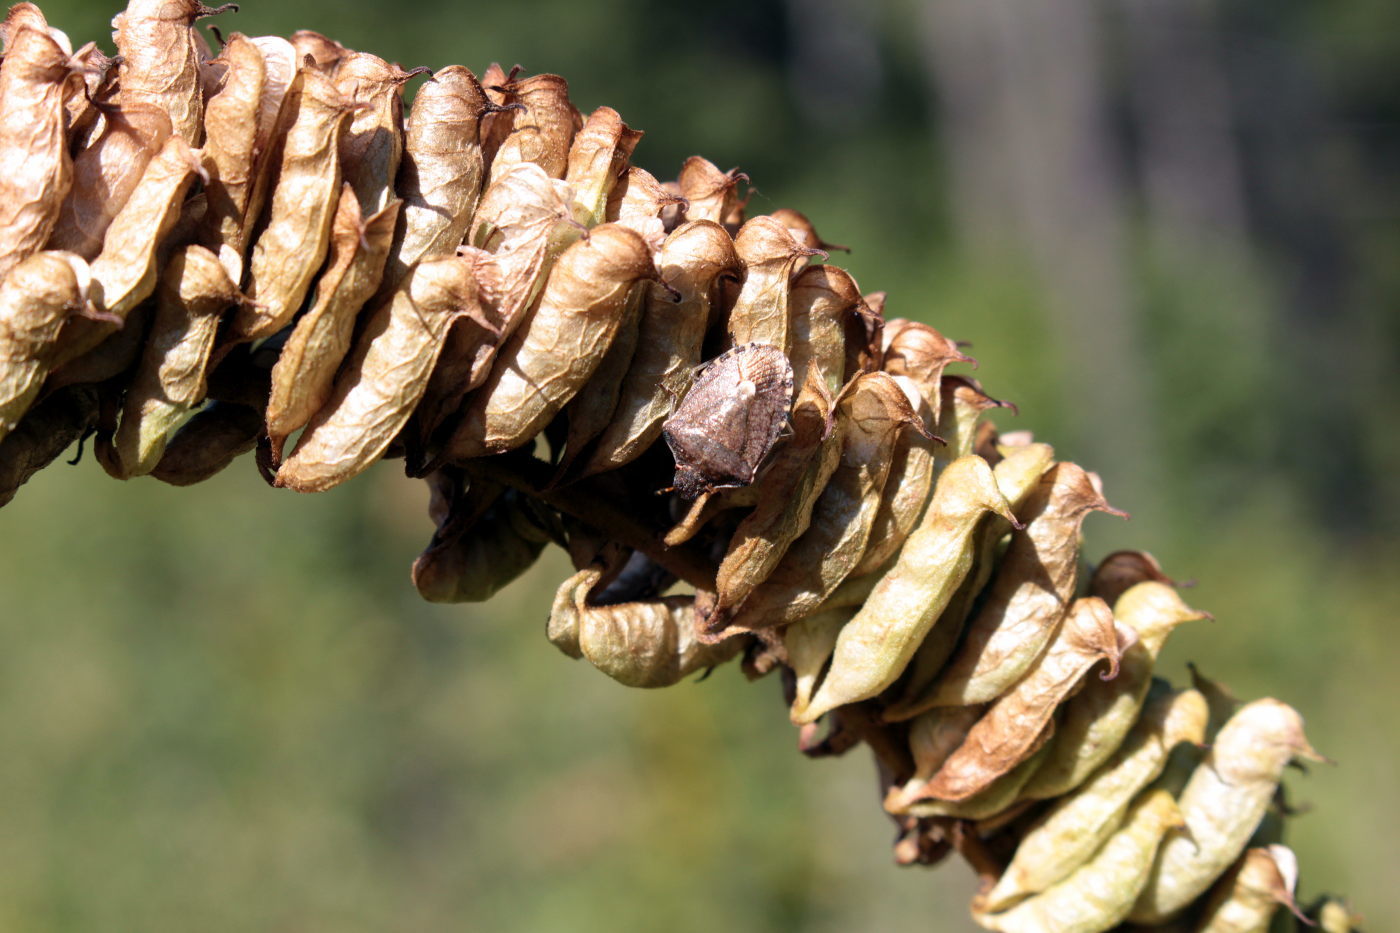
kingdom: Animalia
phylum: Arthropoda
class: Insecta
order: Hemiptera
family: Pentatomidae
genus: Holcostethus
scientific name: Holcostethus strictus
